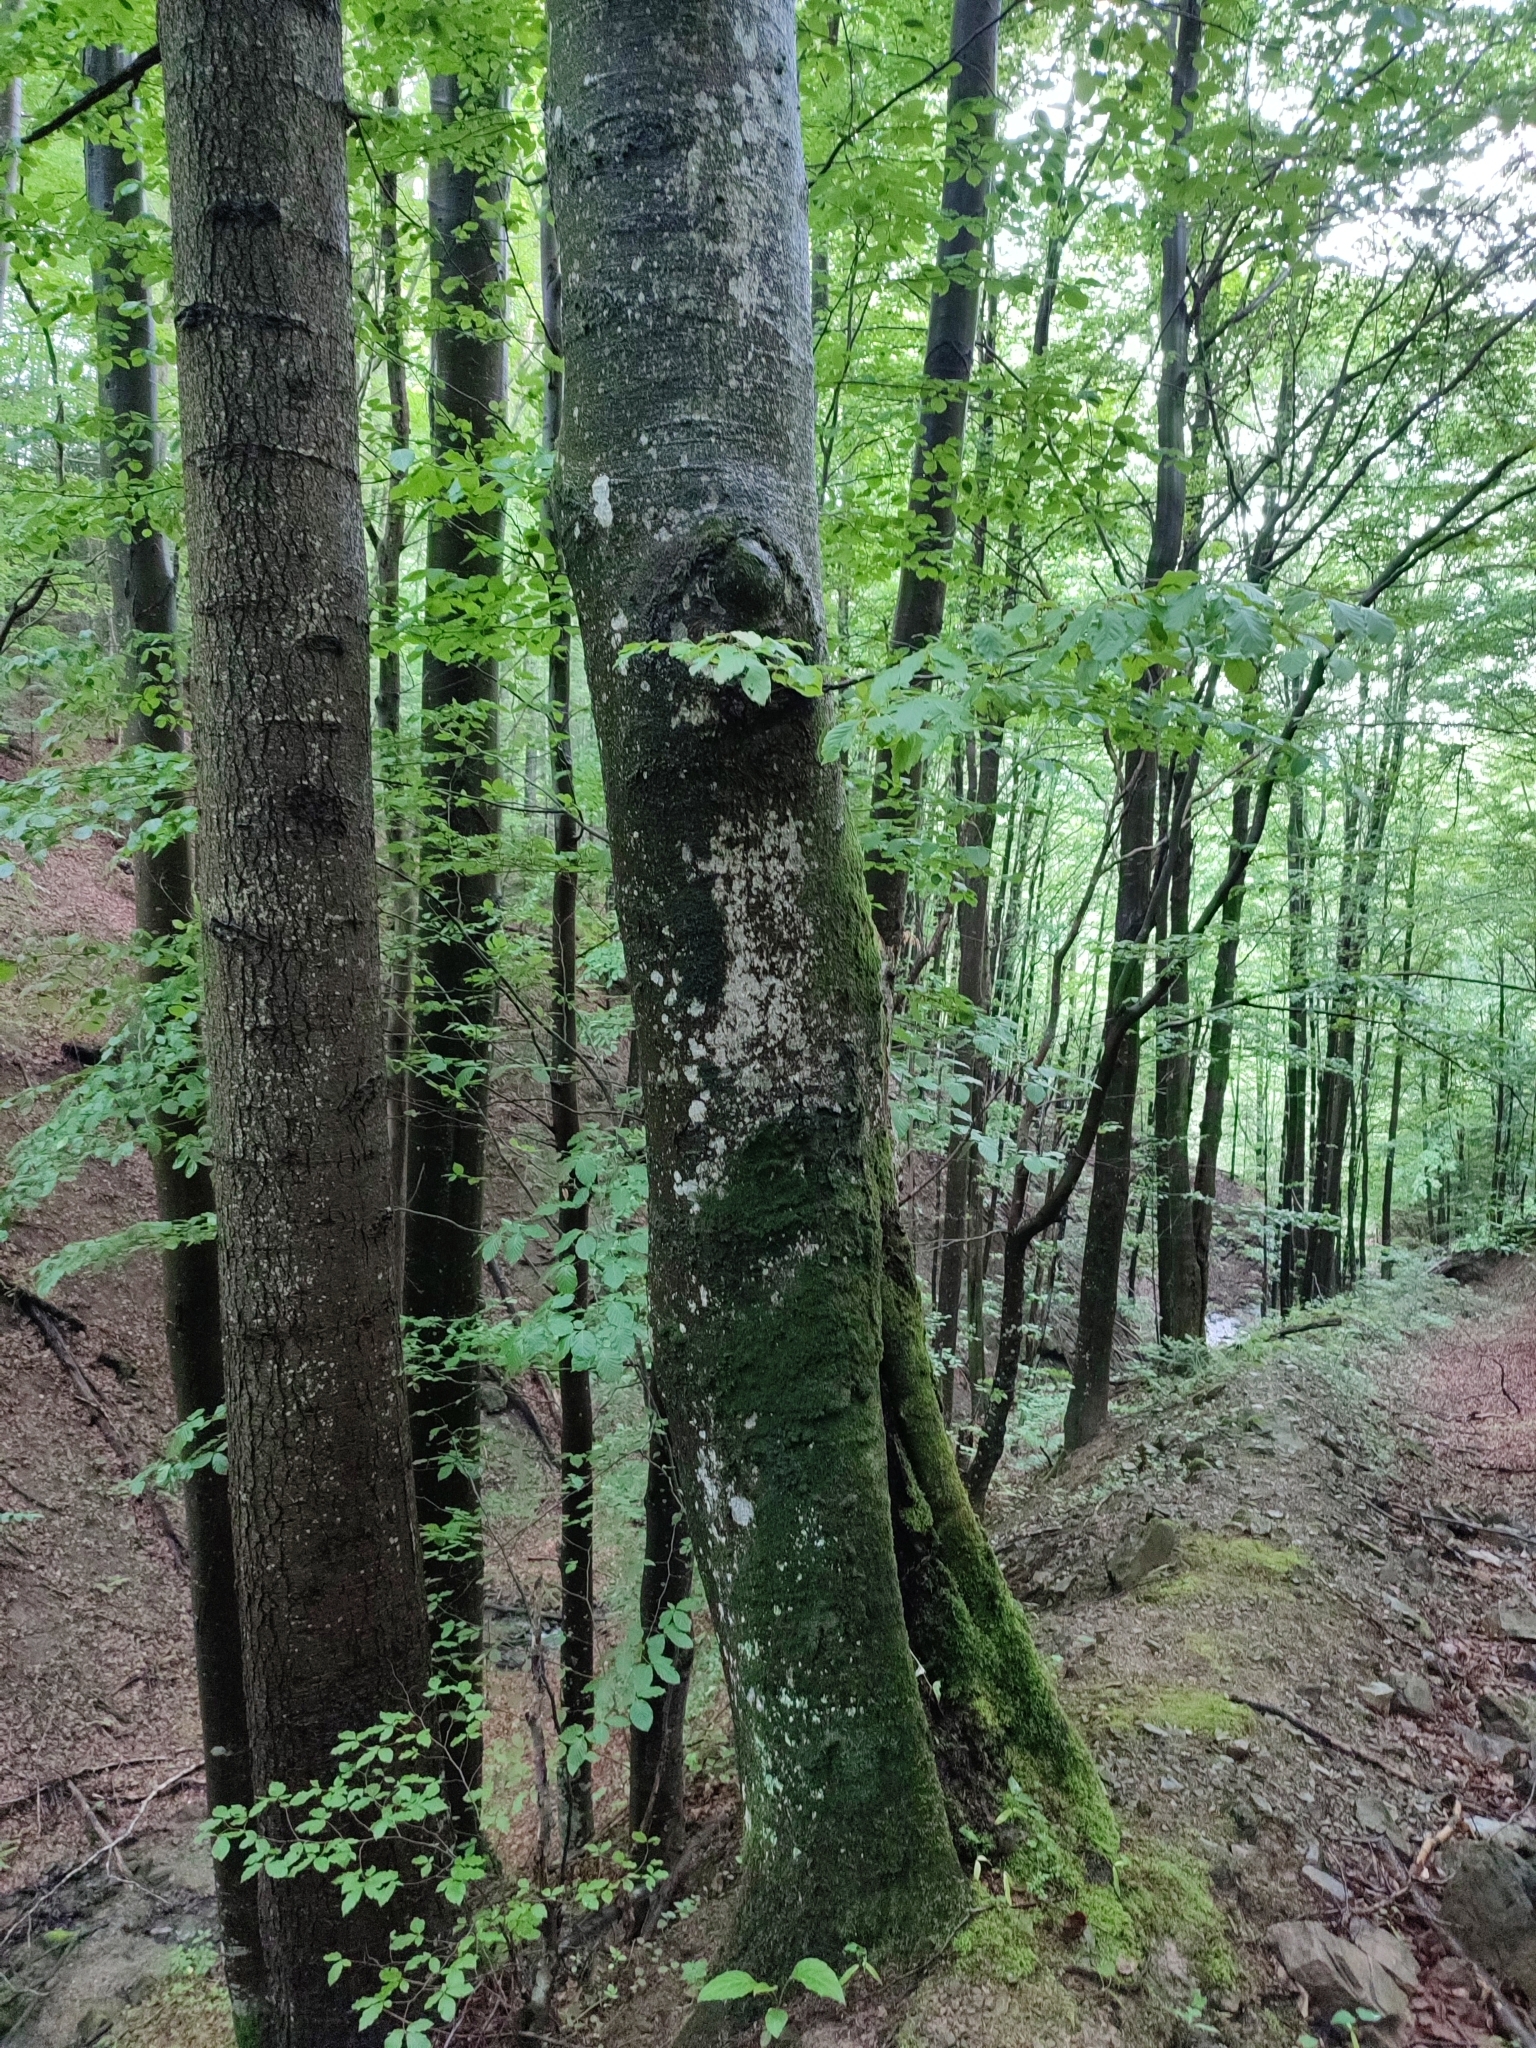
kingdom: Plantae
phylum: Tracheophyta
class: Magnoliopsida
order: Fagales
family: Fagaceae
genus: Fagus
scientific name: Fagus sylvatica
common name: Beech
